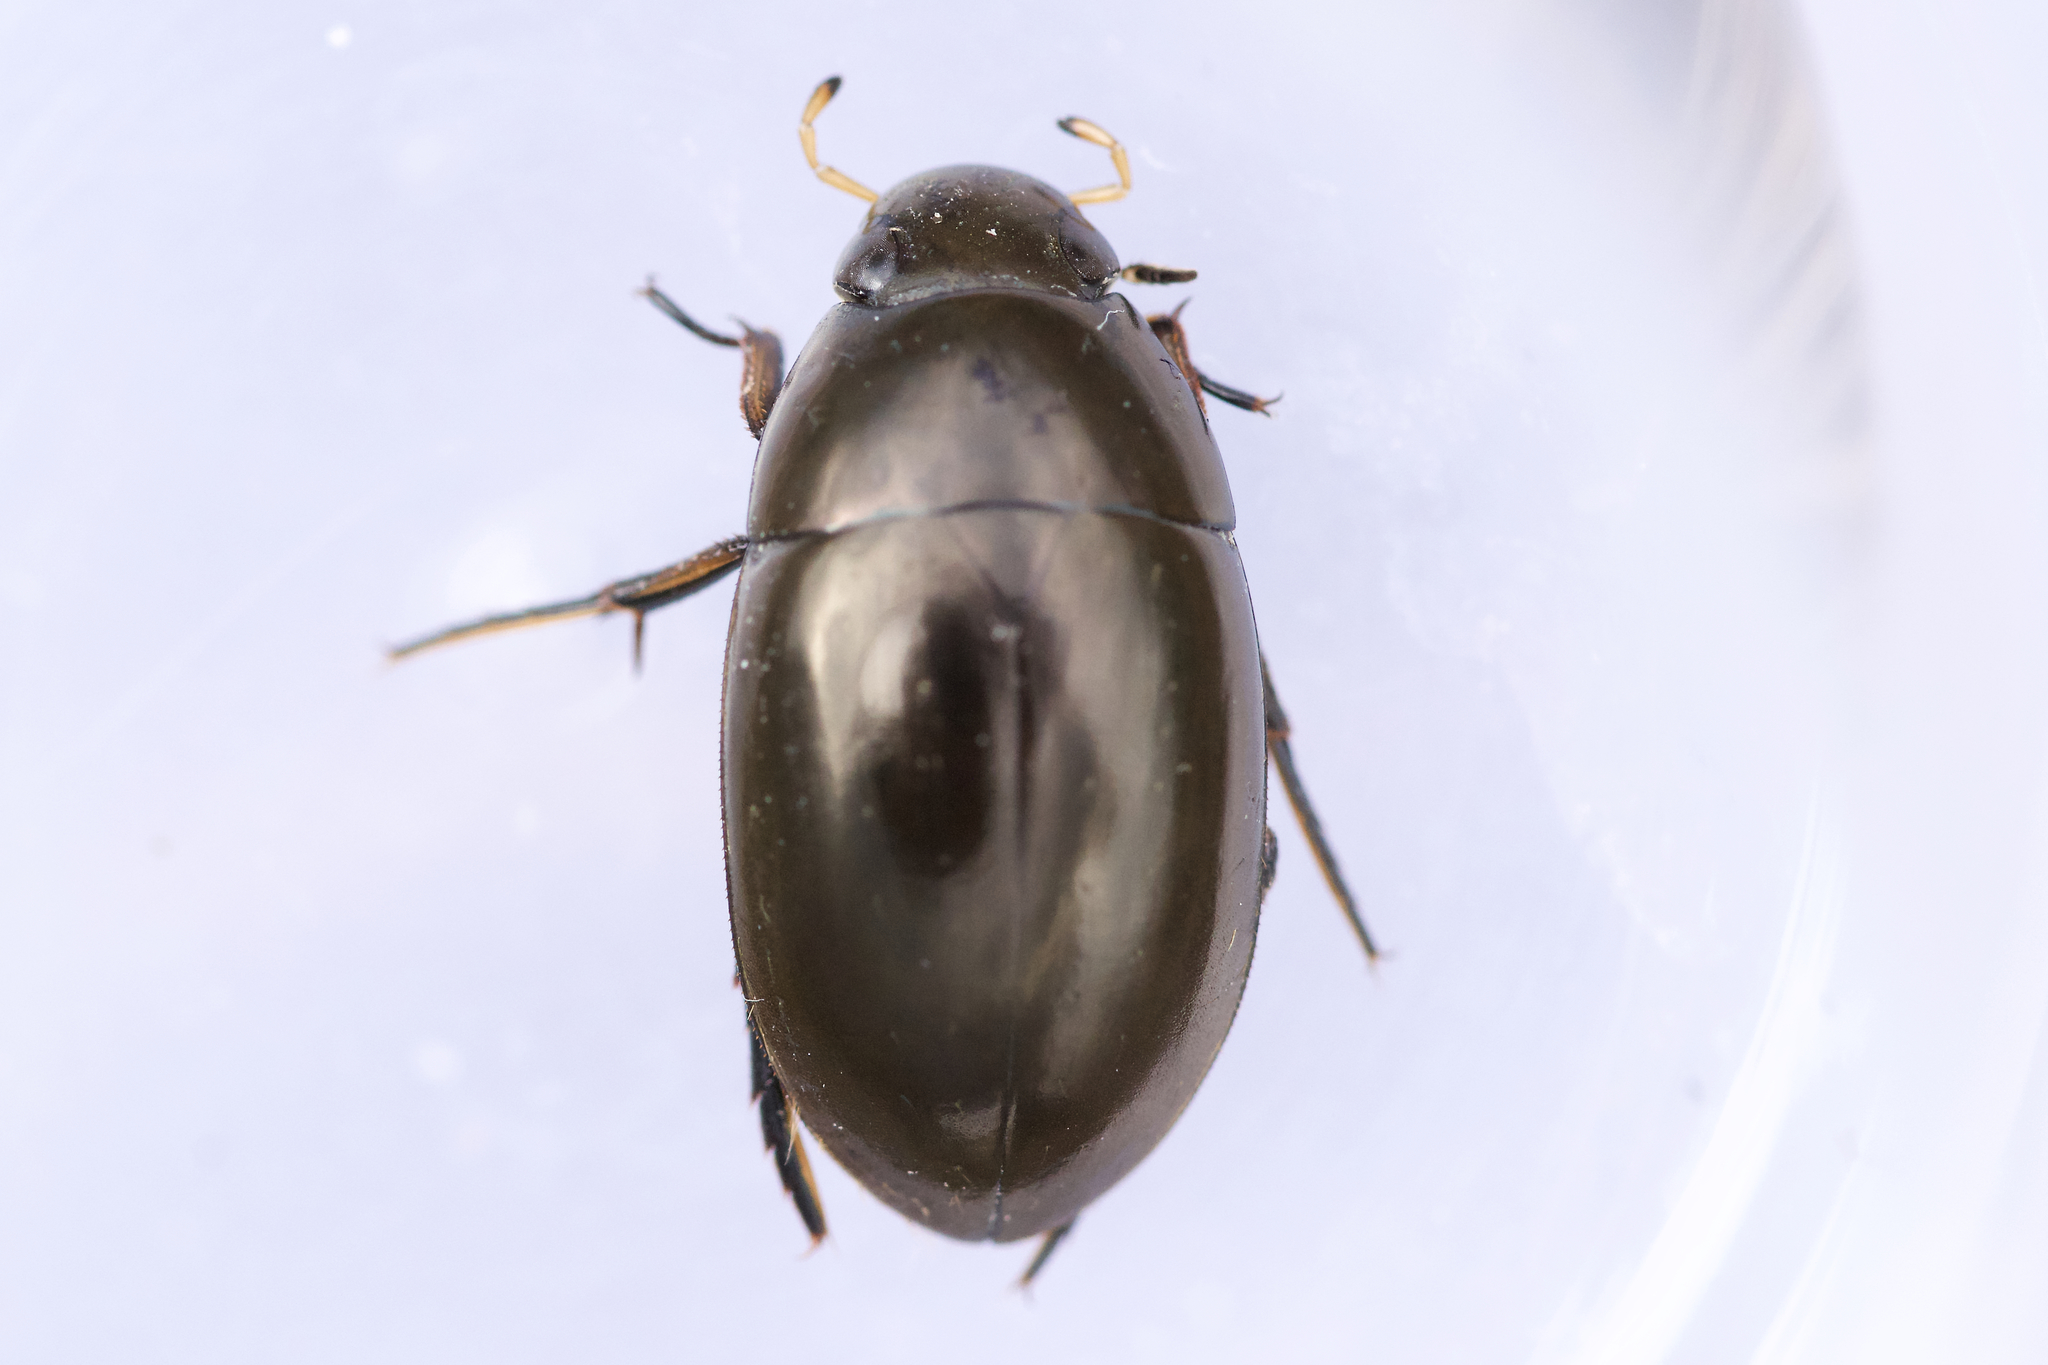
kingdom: Animalia
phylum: Arthropoda
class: Insecta
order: Coleoptera
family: Hydrophilidae
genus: Tropisternus
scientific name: Tropisternus glaber
